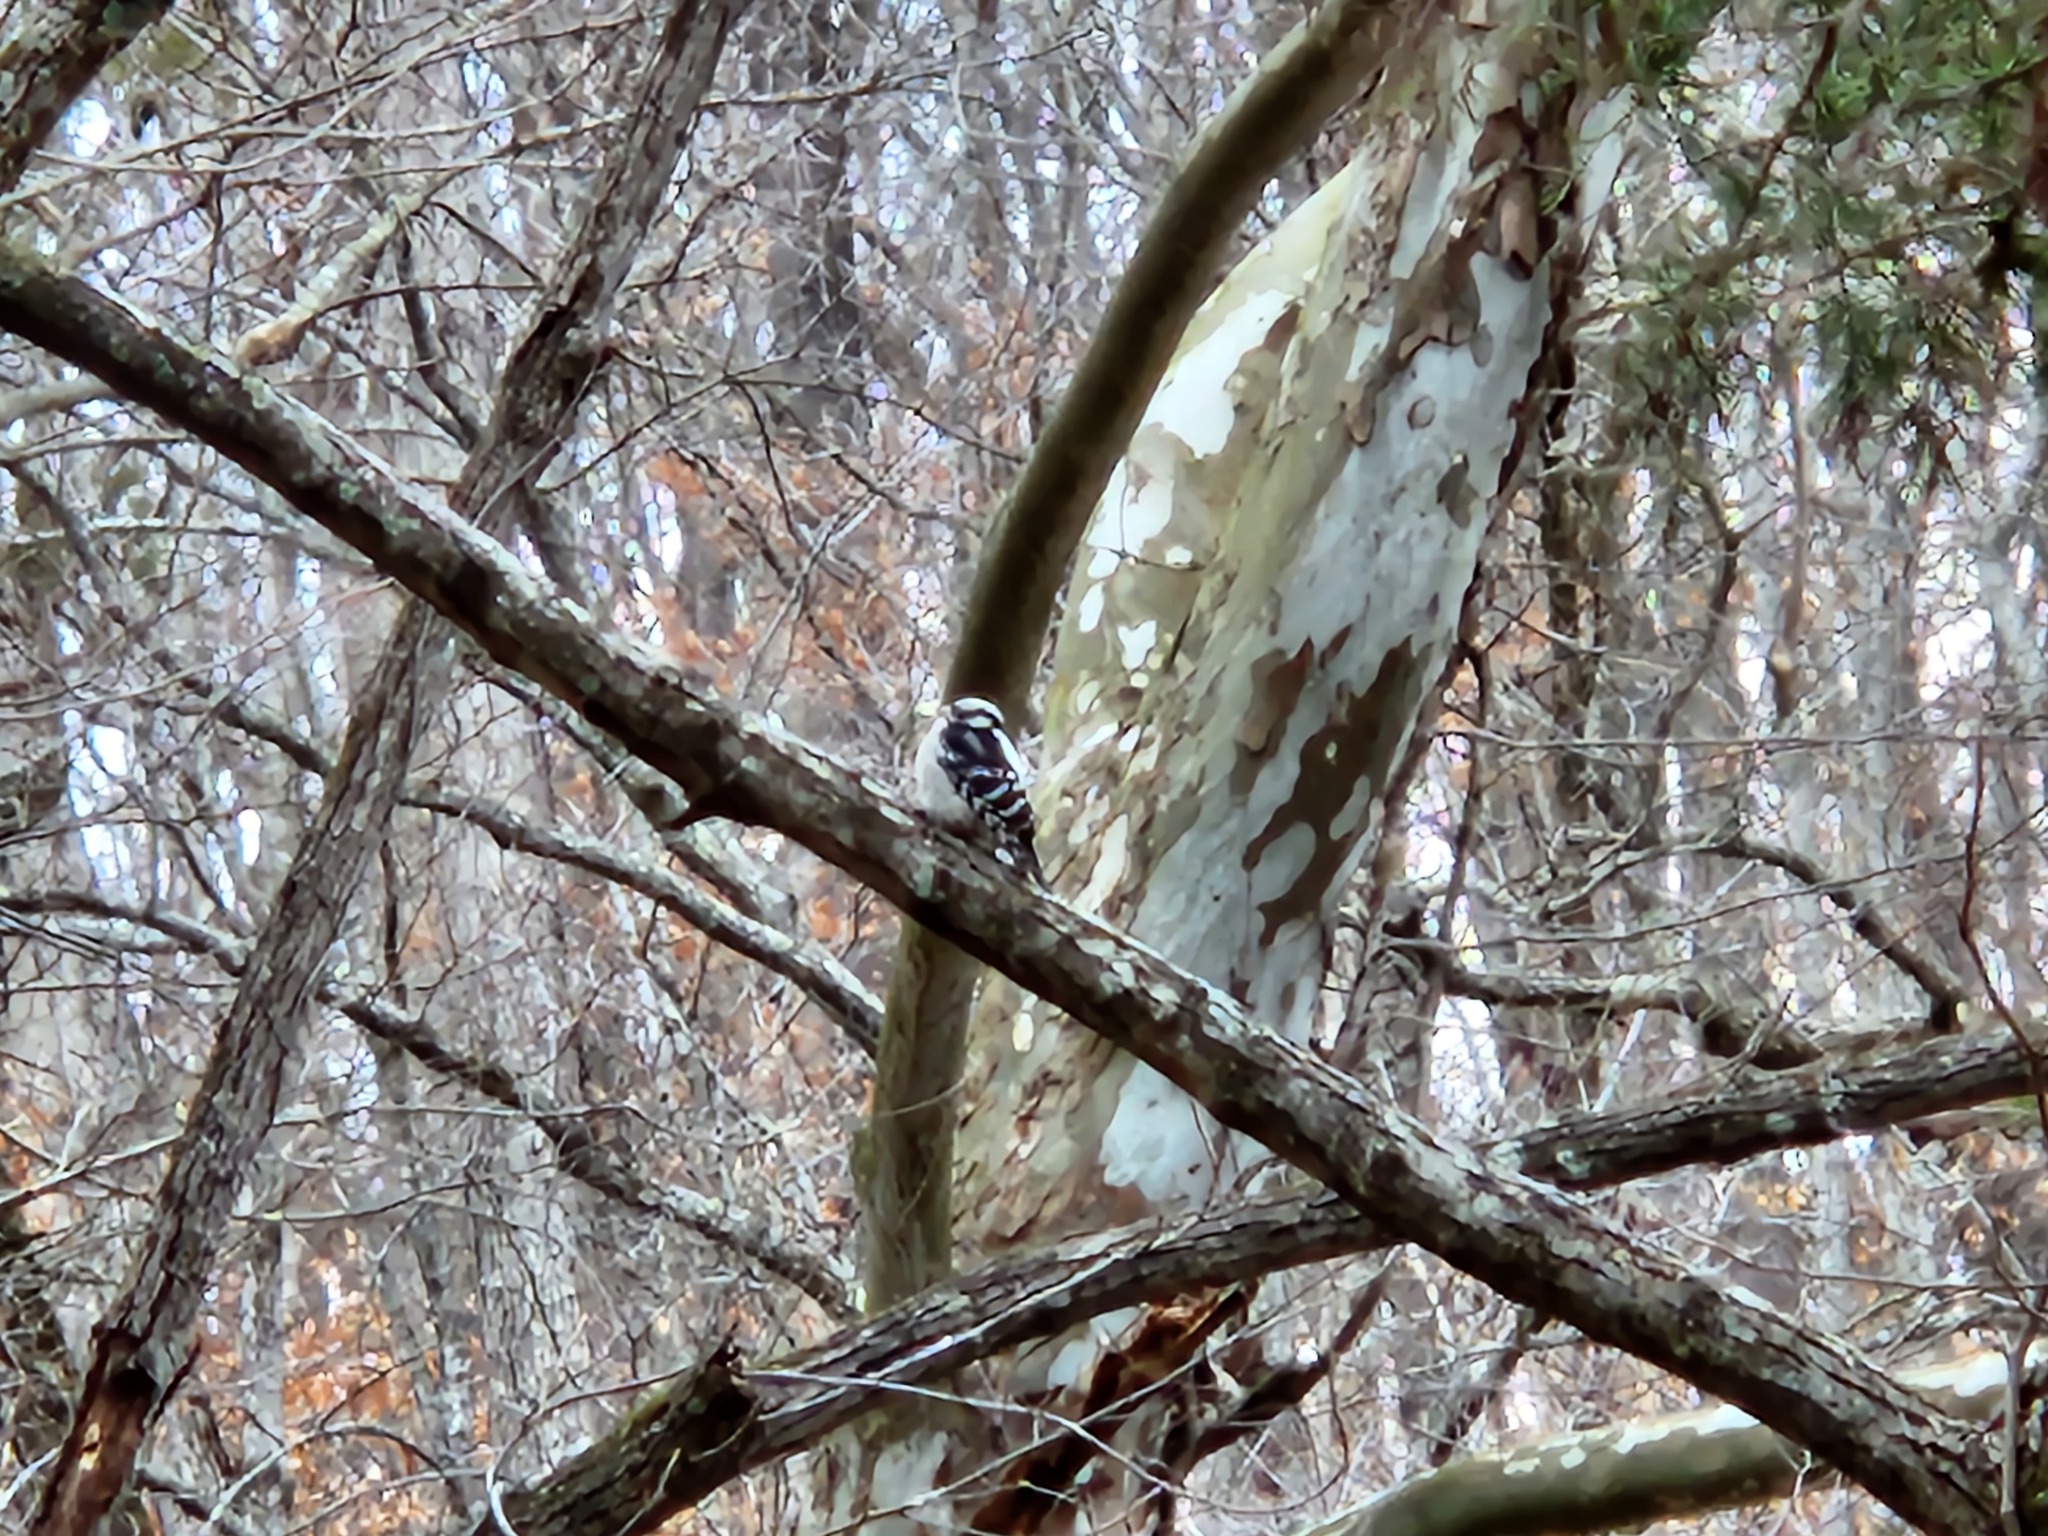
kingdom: Animalia
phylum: Chordata
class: Aves
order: Piciformes
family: Picidae
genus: Dryobates
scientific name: Dryobates pubescens
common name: Downy woodpecker
